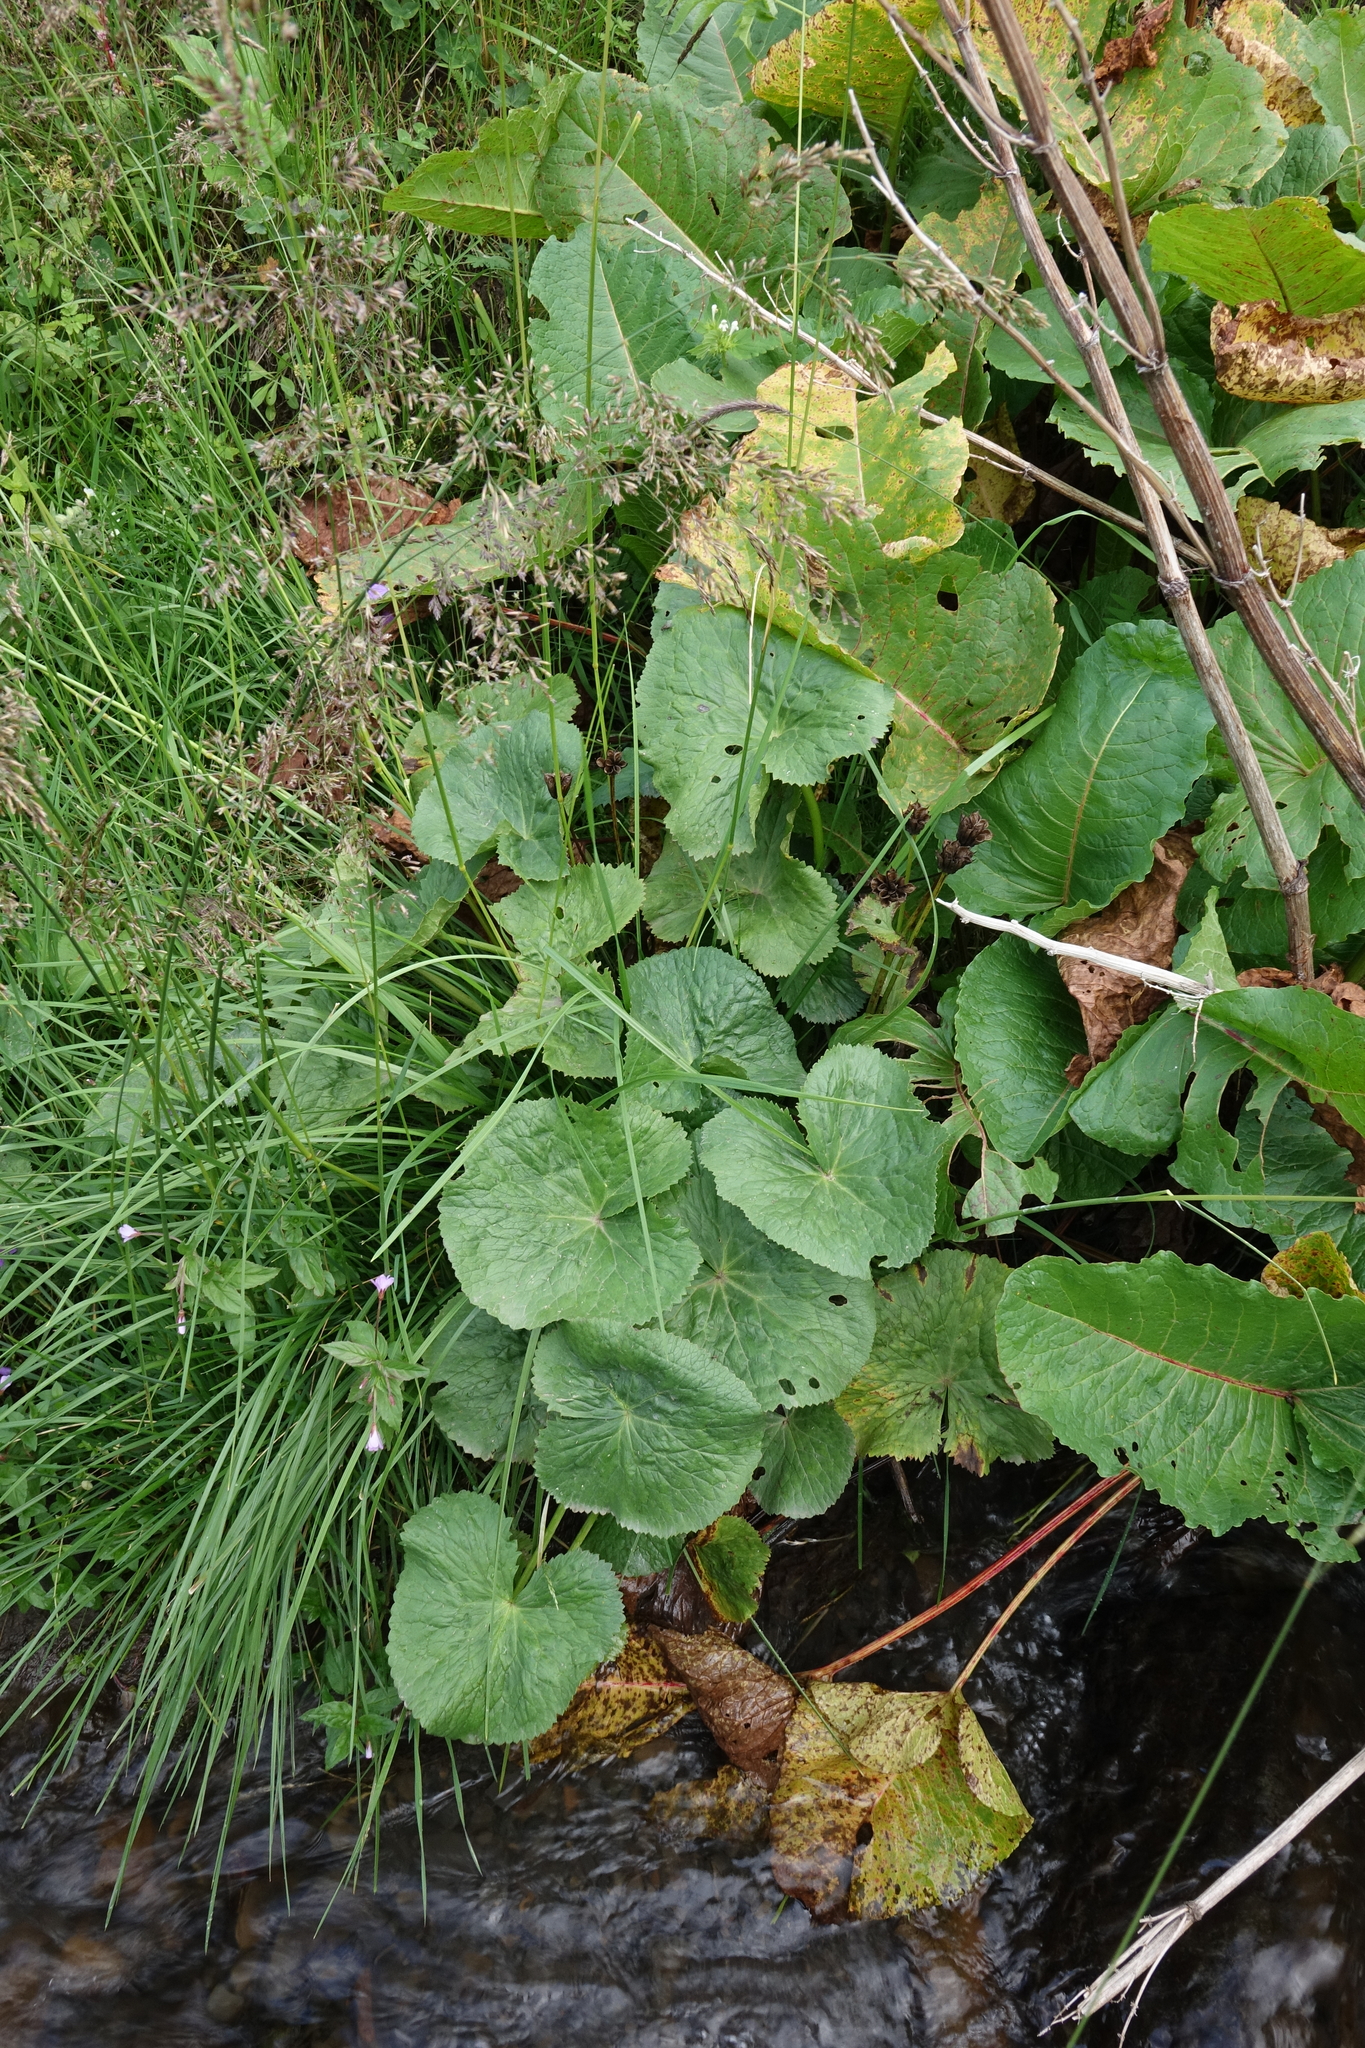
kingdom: Plantae
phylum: Tracheophyta
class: Magnoliopsida
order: Ranunculales
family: Ranunculaceae
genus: Caltha
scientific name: Caltha palustris
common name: Marsh marigold
